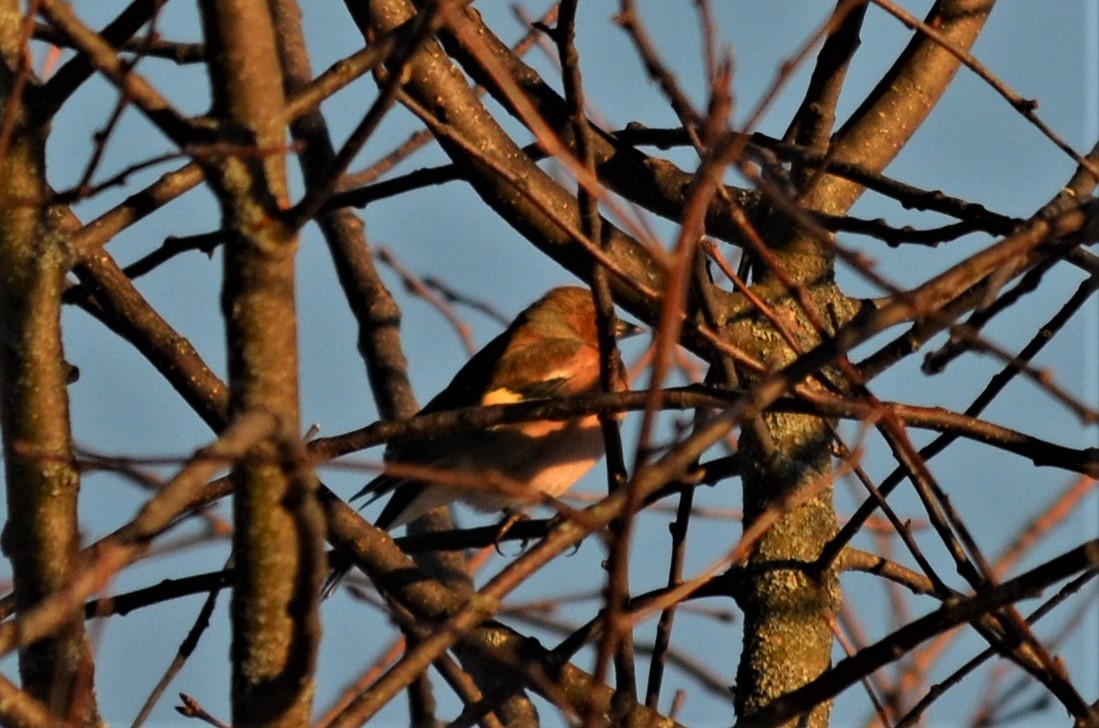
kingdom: Animalia
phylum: Chordata
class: Aves
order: Passeriformes
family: Fringillidae
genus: Fringilla
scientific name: Fringilla coelebs
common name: Common chaffinch
